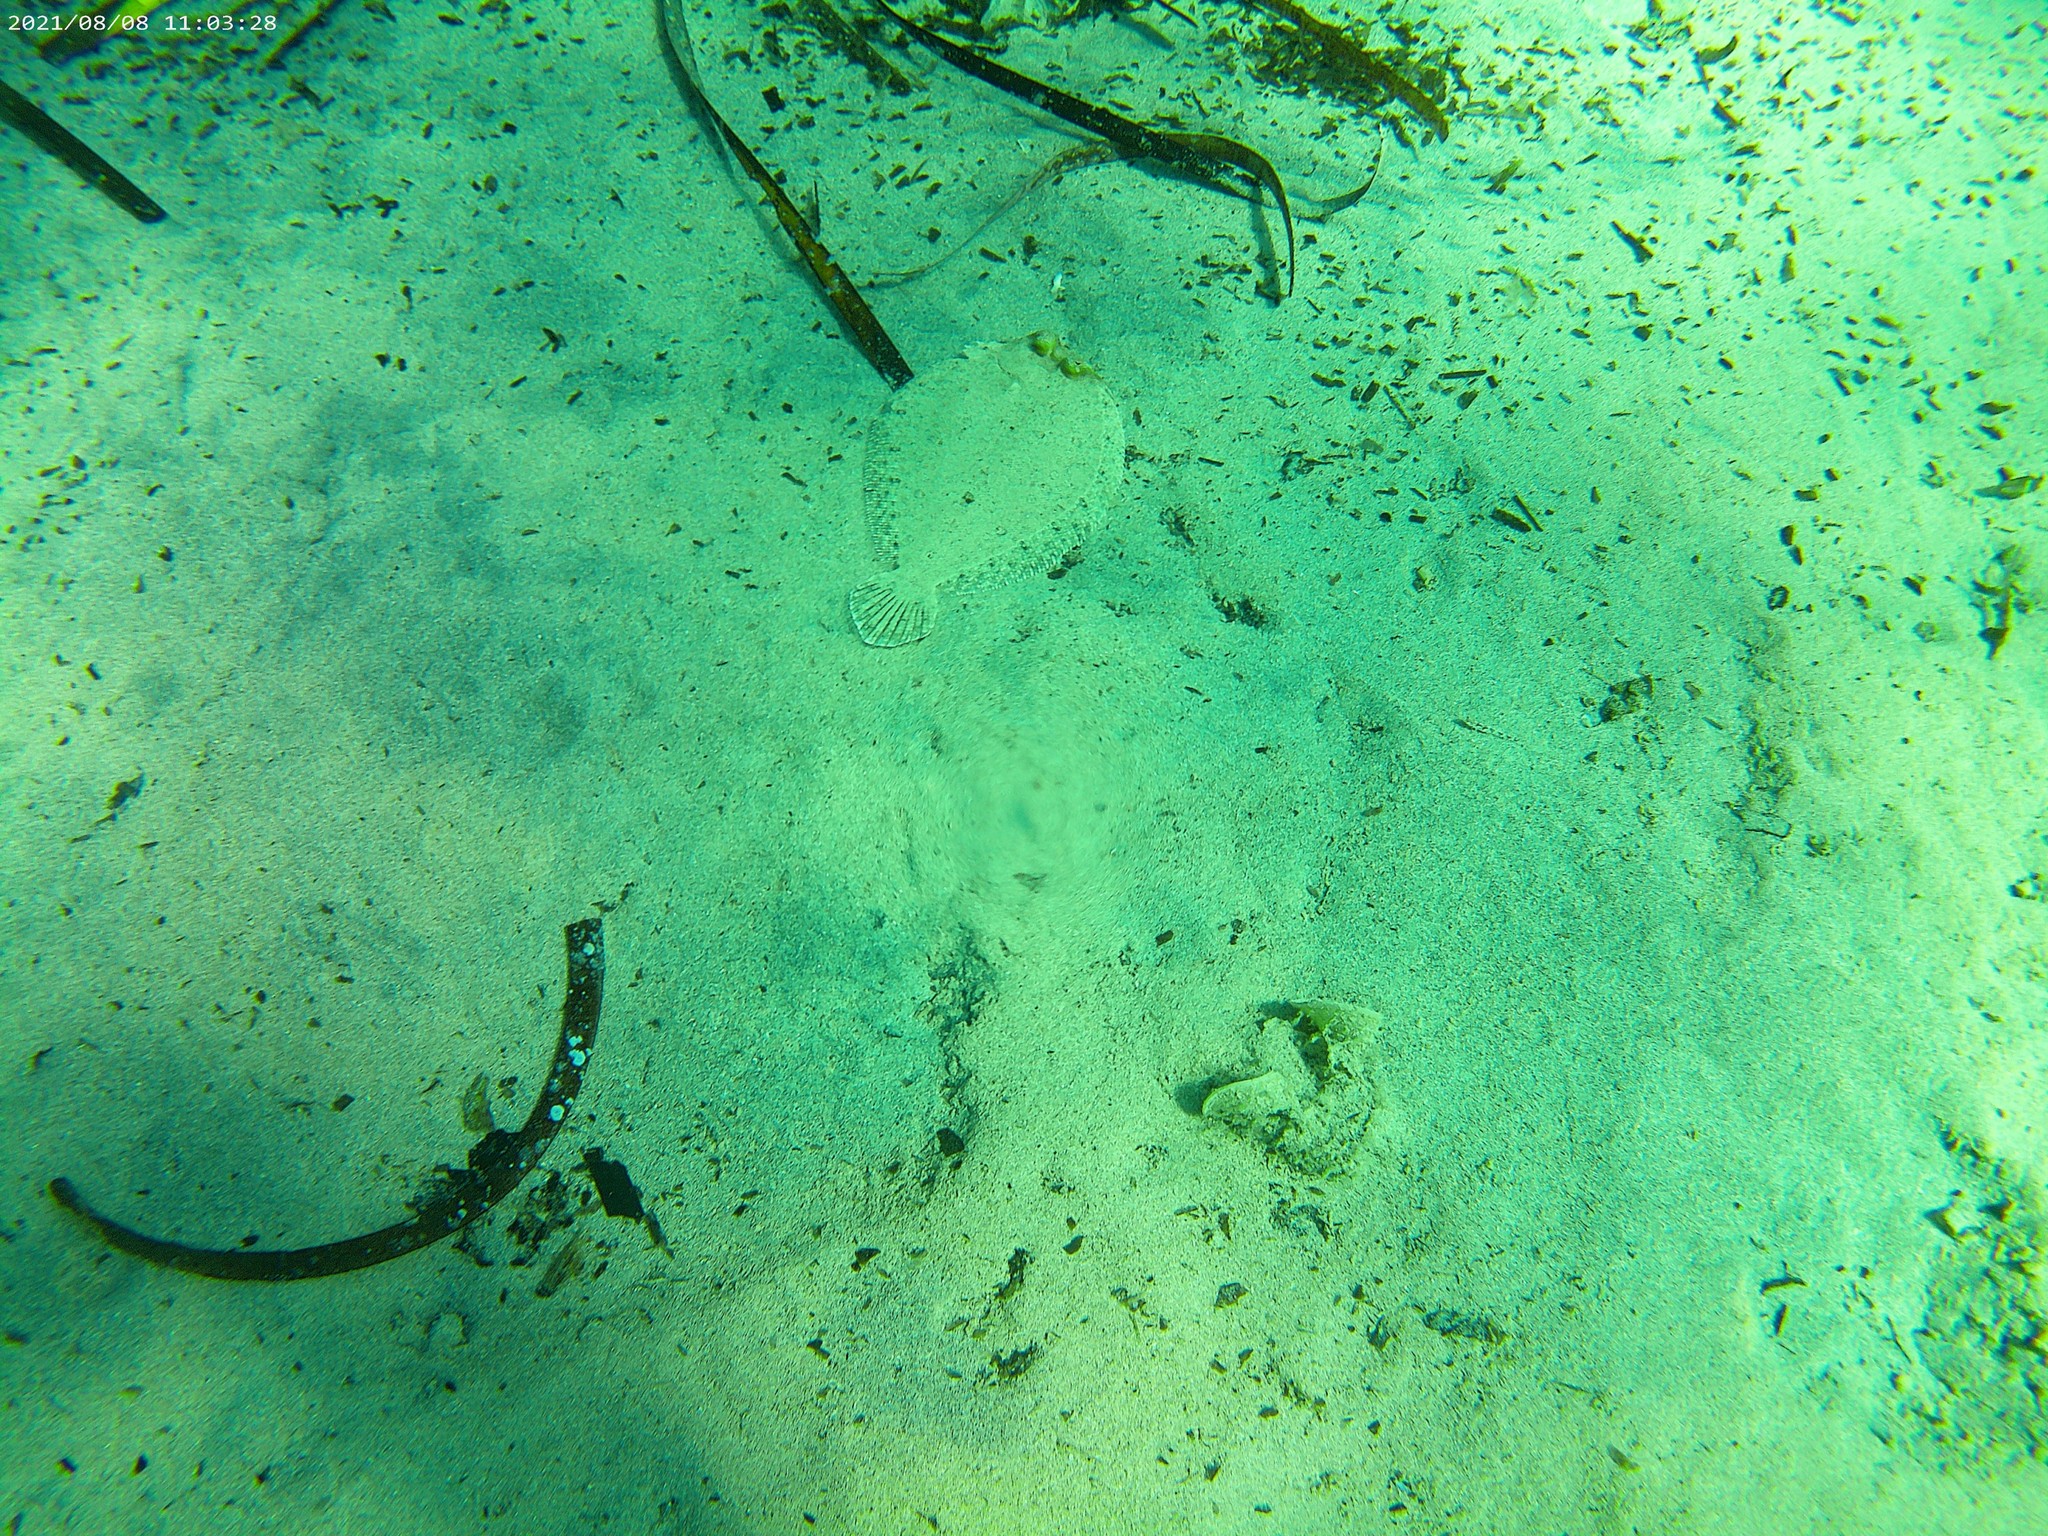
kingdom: Animalia
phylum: Chordata
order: Pleuronectiformes
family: Bothidae
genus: Bothus
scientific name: Bothus podas
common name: Wide-eyed flounder
